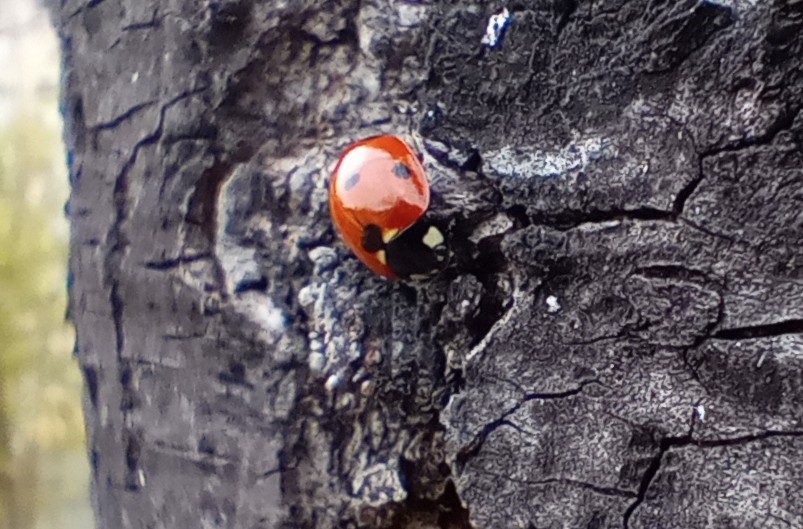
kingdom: Animalia
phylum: Arthropoda
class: Insecta
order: Coleoptera
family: Coccinellidae
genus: Coccinella
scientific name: Coccinella septempunctata
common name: Sevenspotted lady beetle
